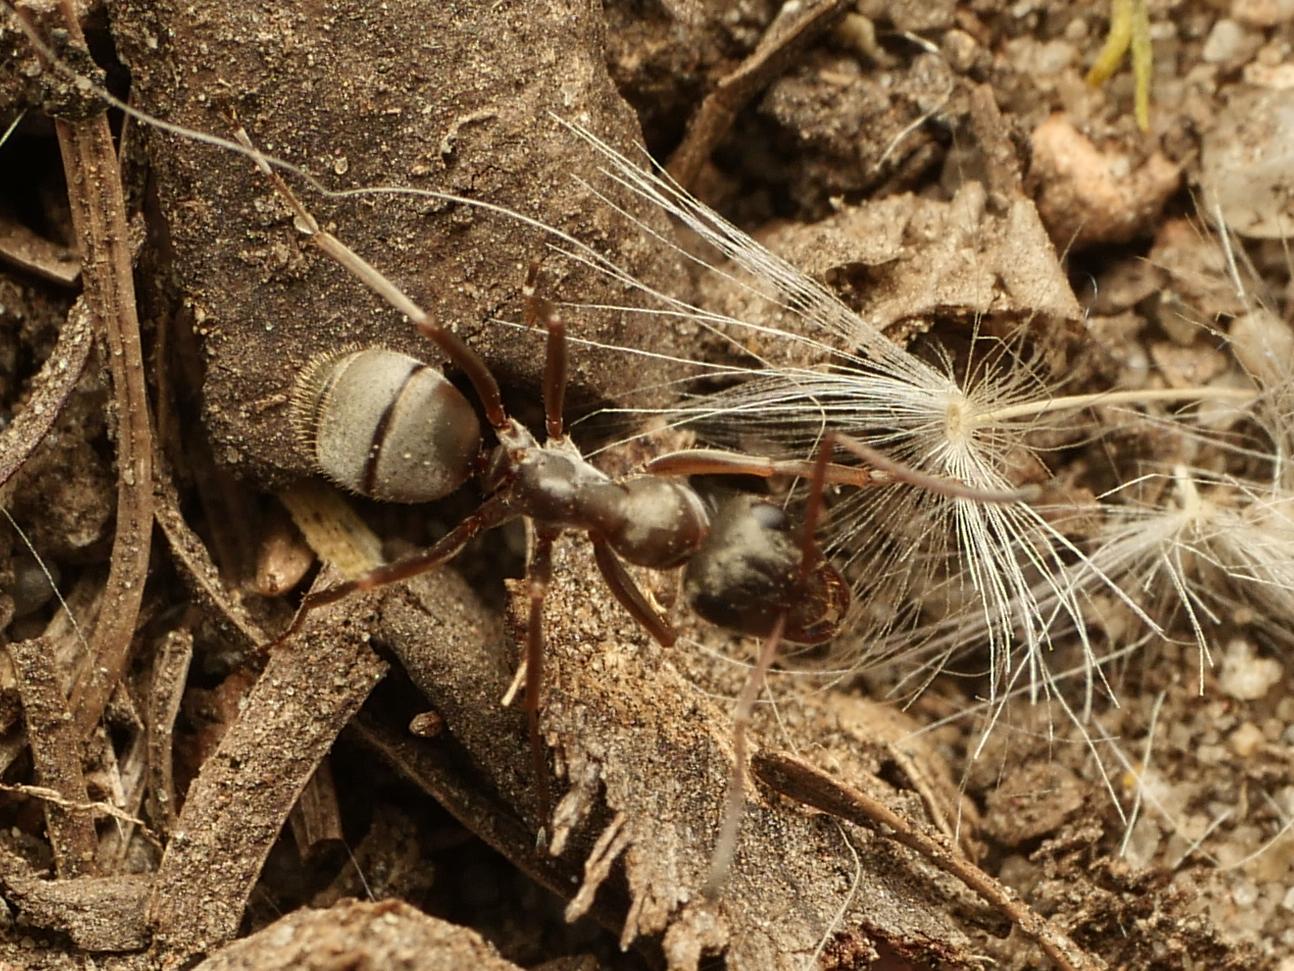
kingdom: Animalia
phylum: Arthropoda
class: Insecta
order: Hymenoptera
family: Formicidae
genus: Formica
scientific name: Formica cinerea
